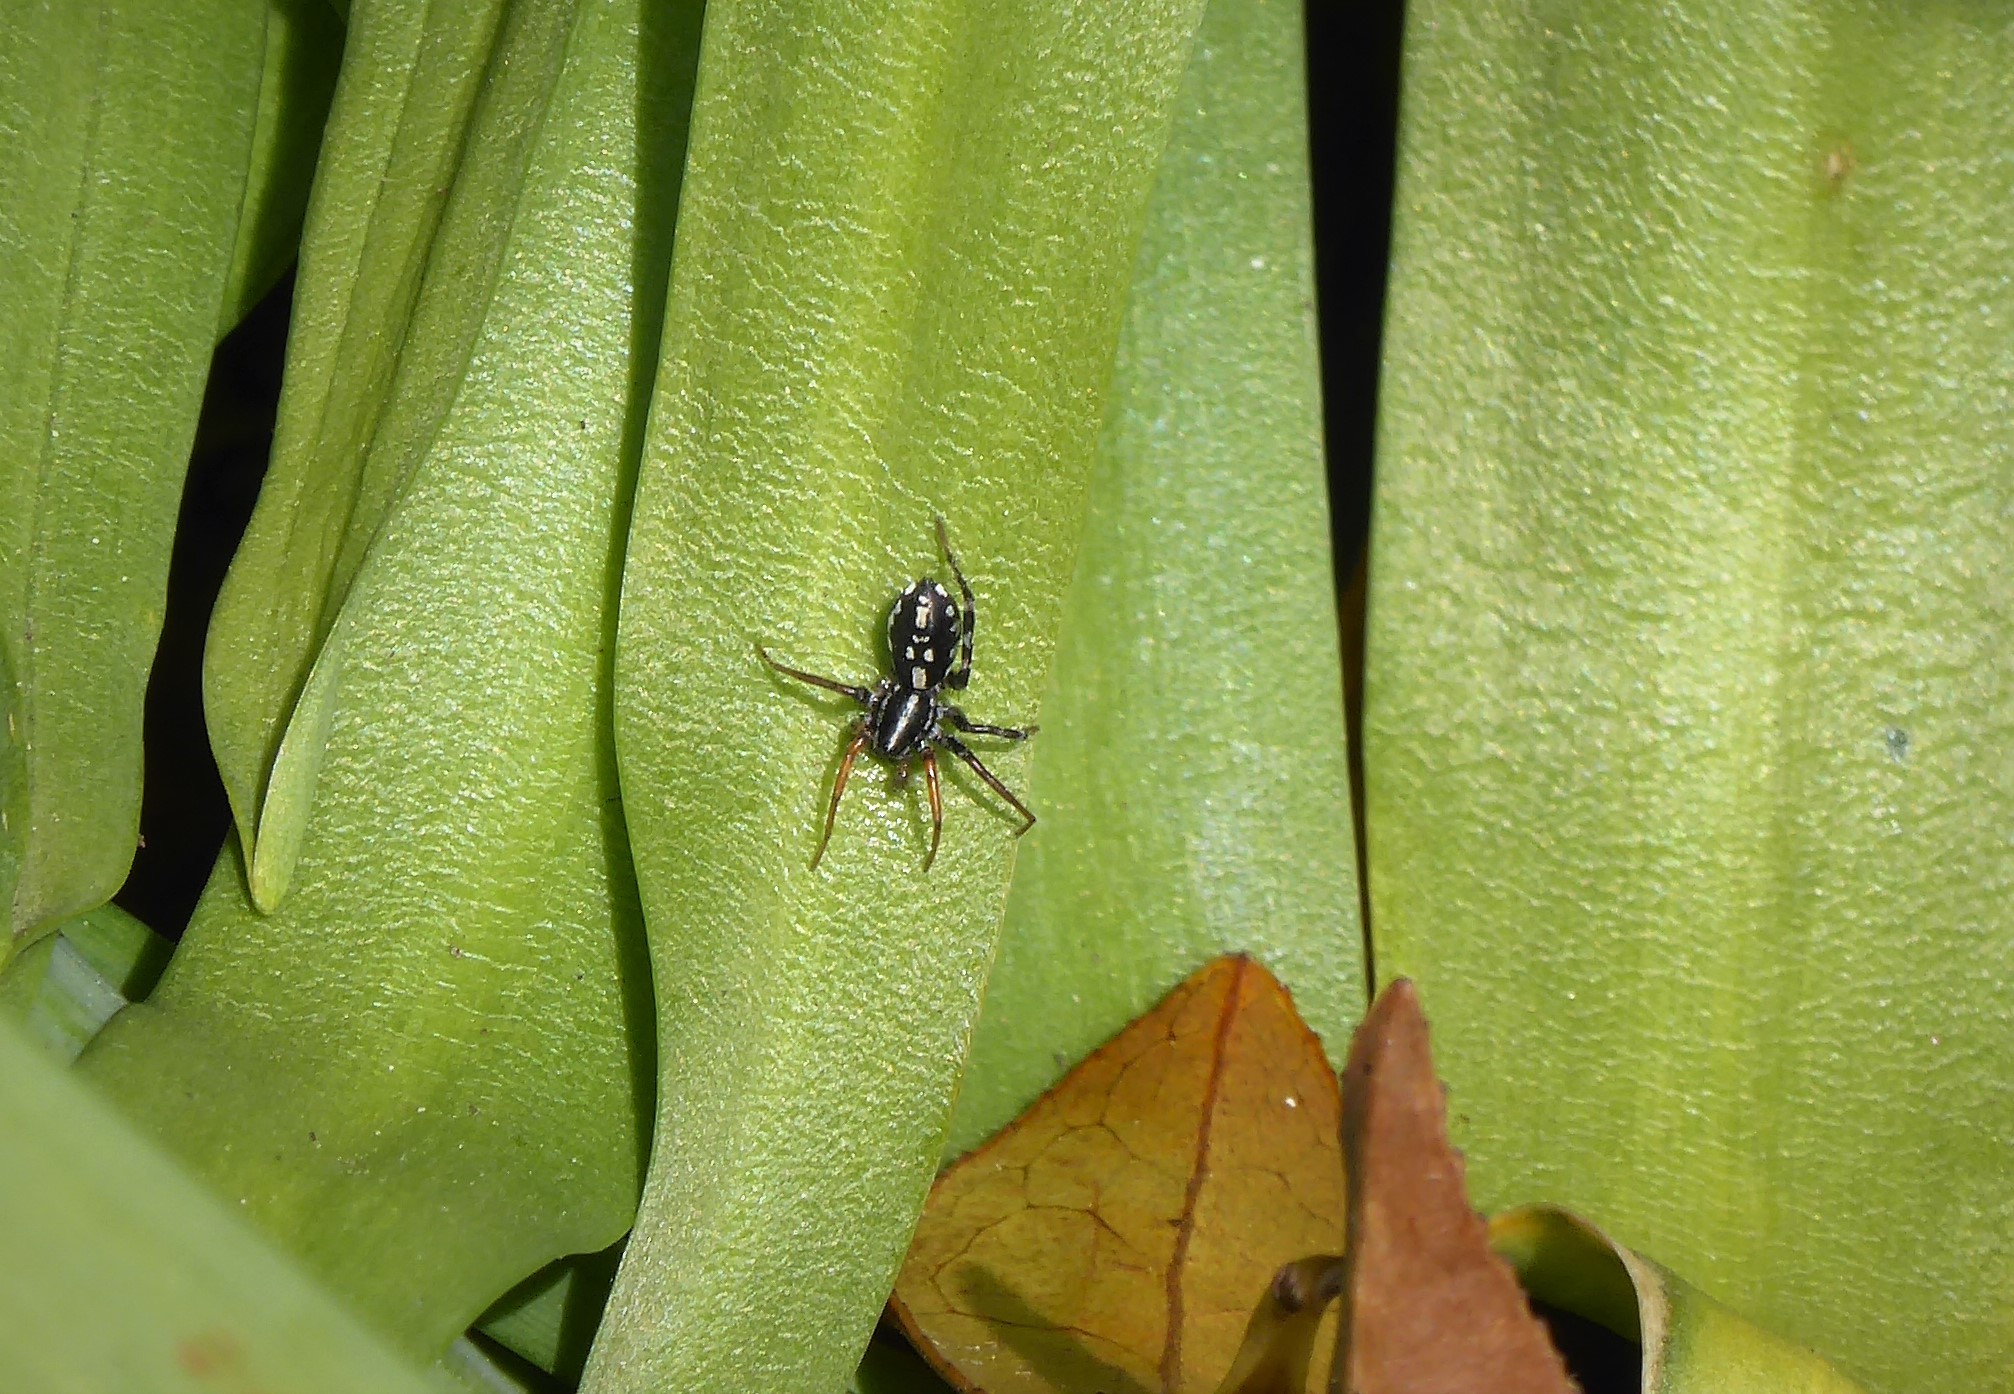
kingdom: Animalia
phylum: Arthropoda
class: Arachnida
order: Araneae
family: Corinnidae
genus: Nyssus
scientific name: Nyssus coloripes
